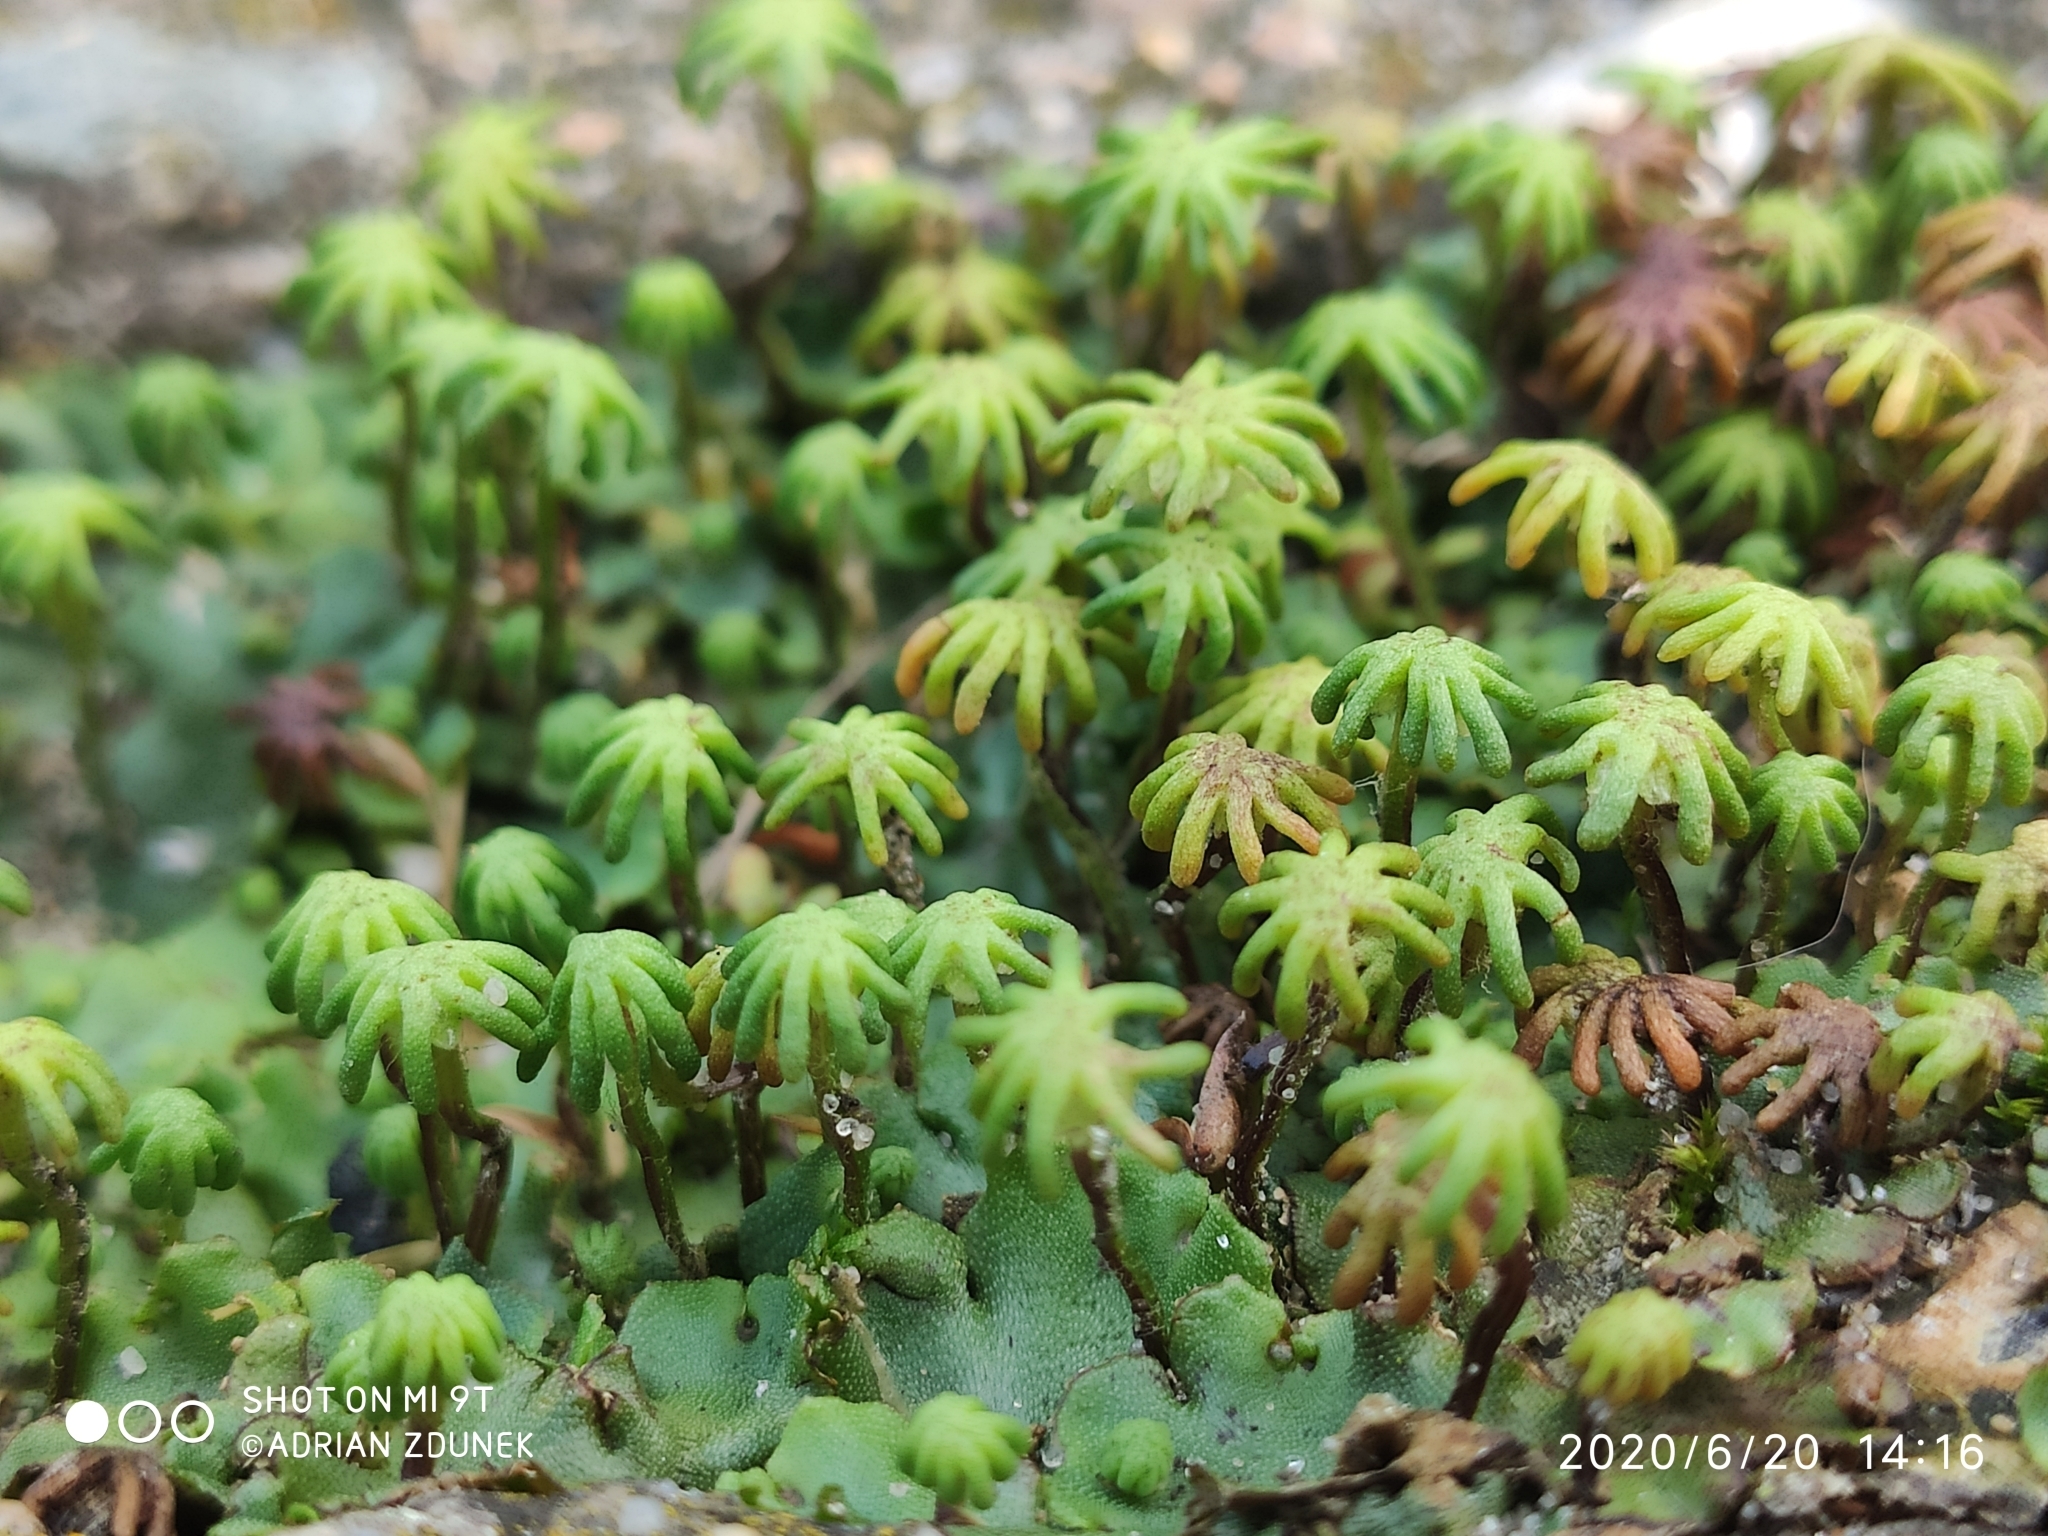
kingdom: Plantae
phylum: Marchantiophyta
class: Marchantiopsida
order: Marchantiales
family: Marchantiaceae
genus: Marchantia
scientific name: Marchantia polymorpha
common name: Common liverwort
